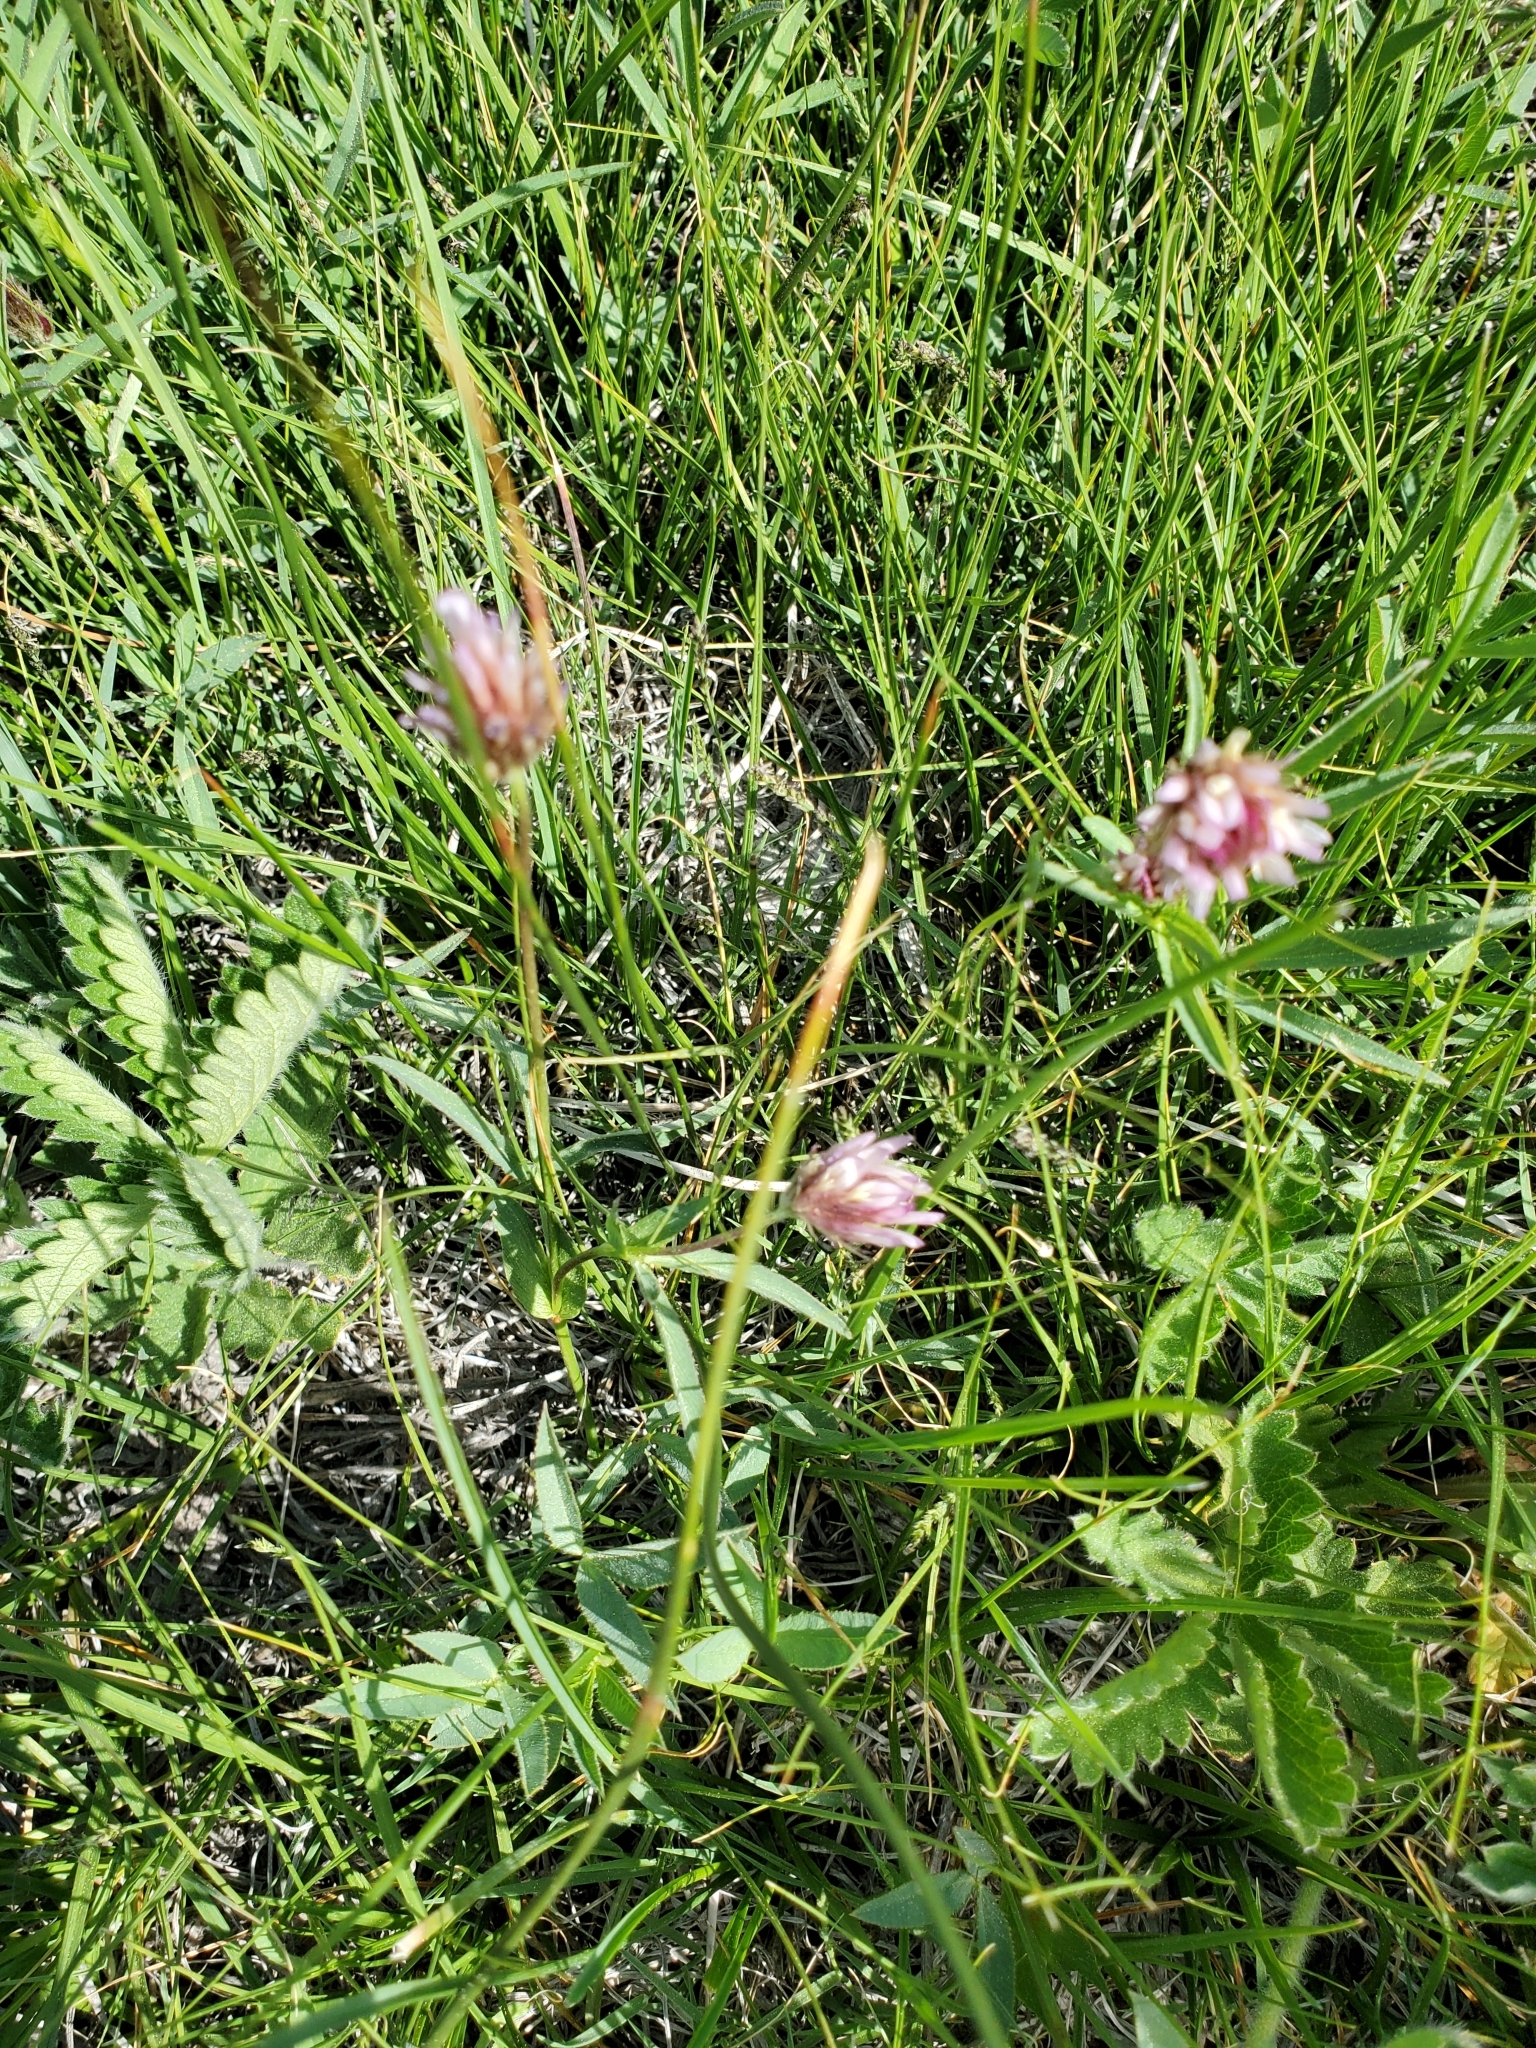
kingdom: Plantae
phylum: Tracheophyta
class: Magnoliopsida
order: Fabales
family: Fabaceae
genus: Trifolium
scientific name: Trifolium longipes
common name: Long-stalk clover
